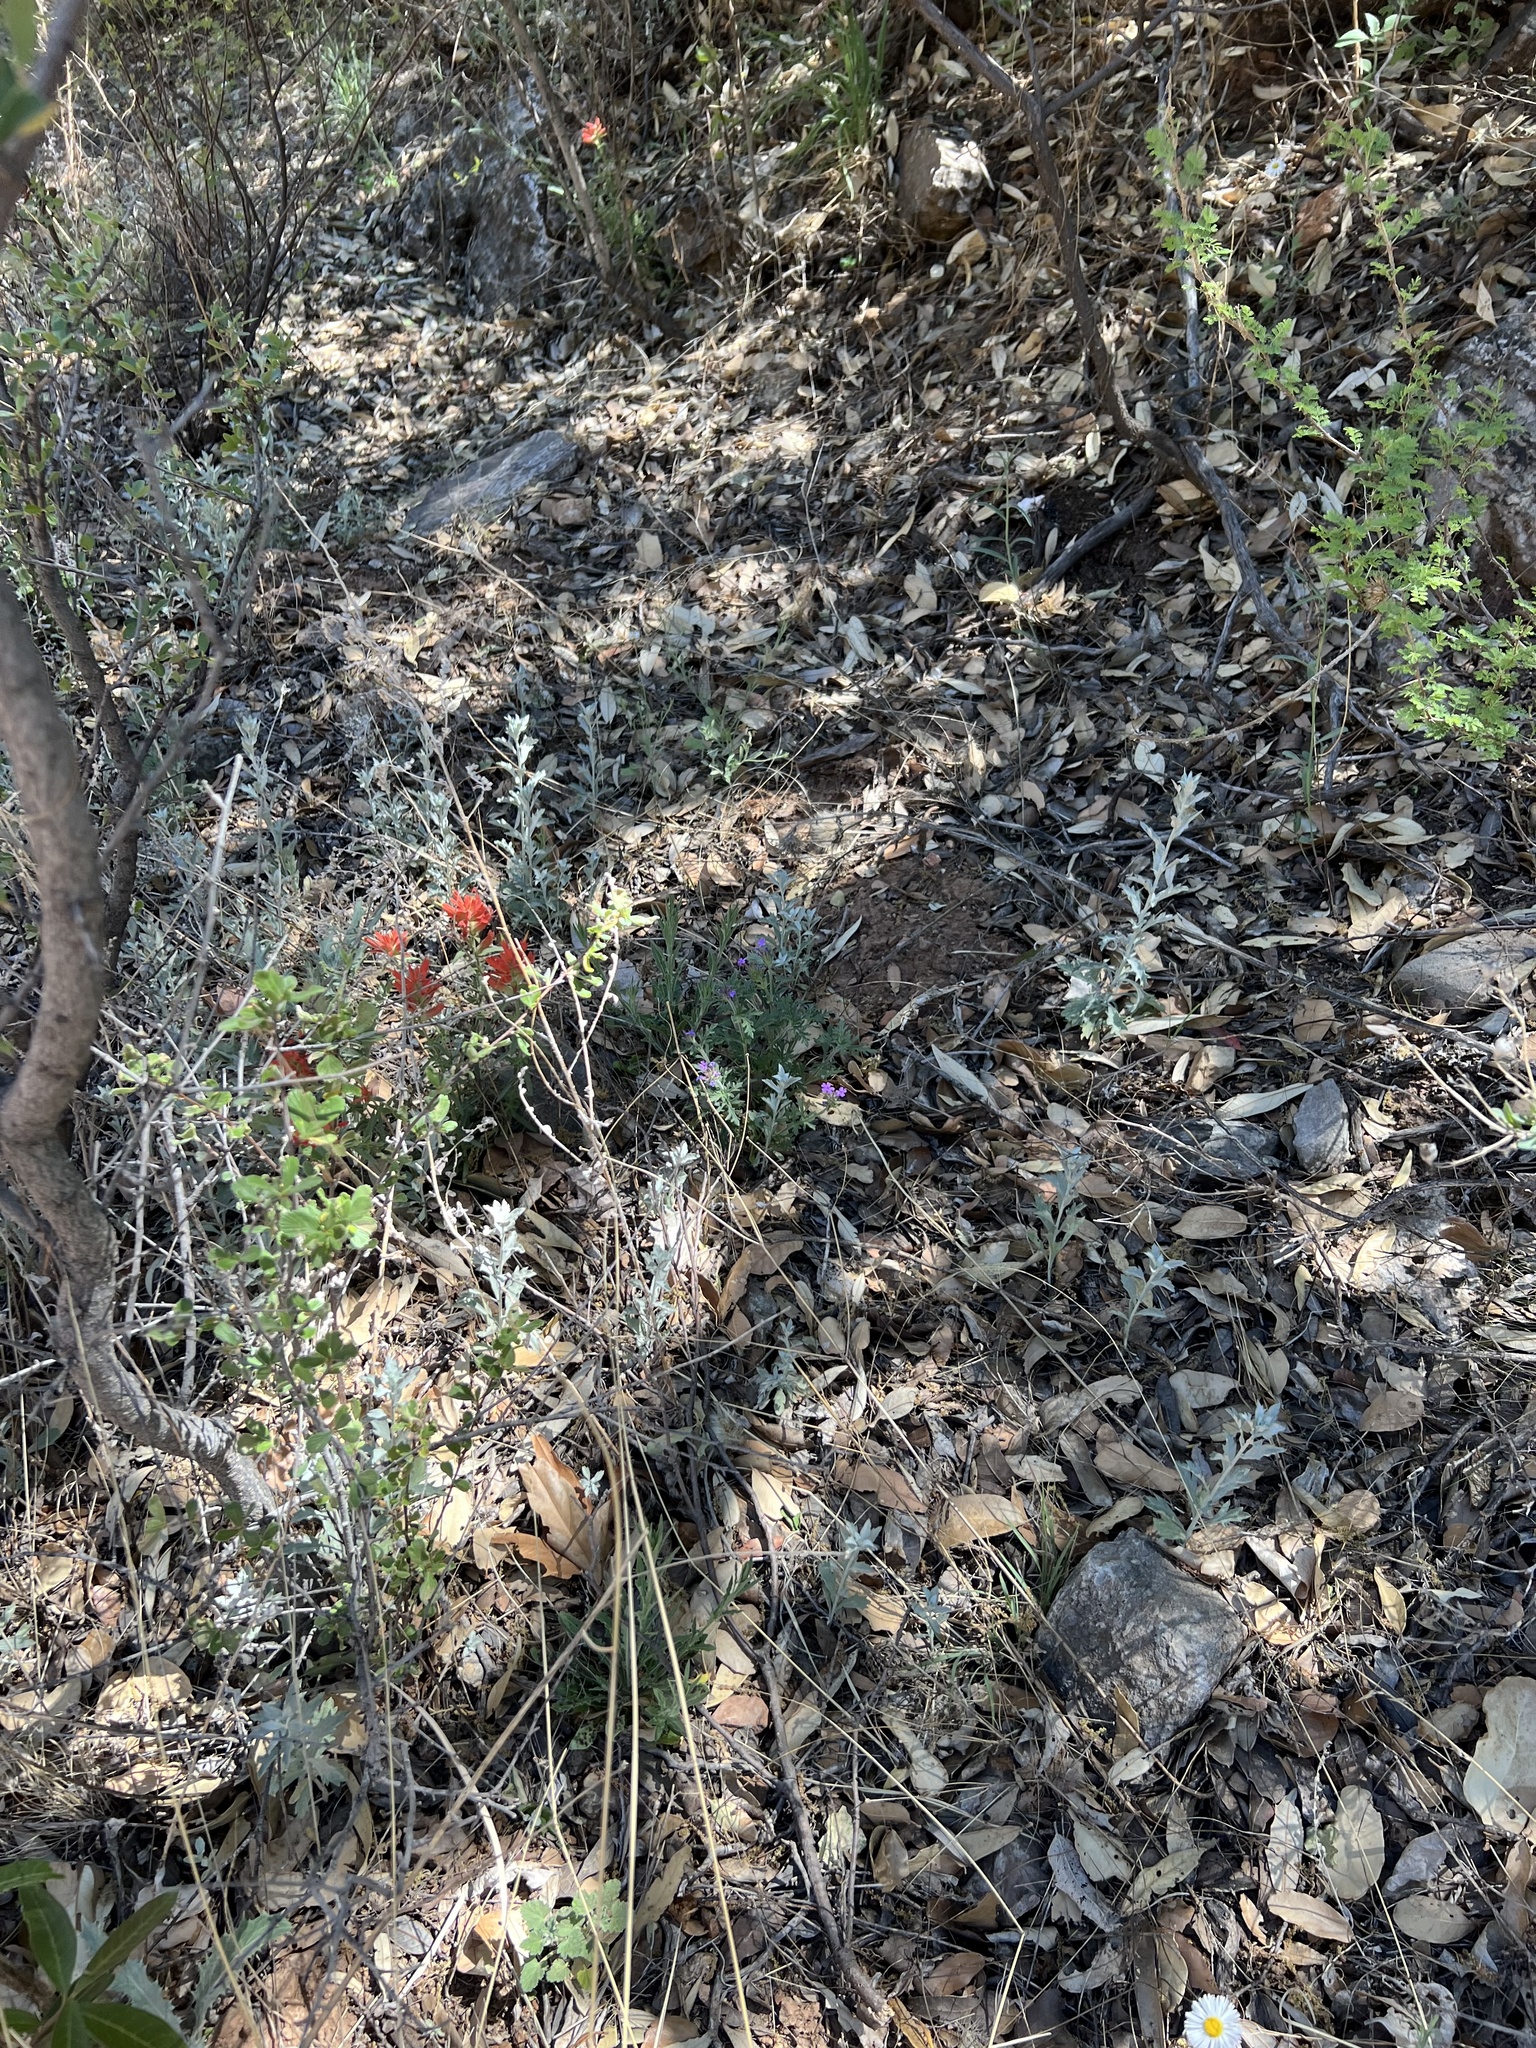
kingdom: Plantae
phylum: Tracheophyta
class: Magnoliopsida
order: Lamiales
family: Orobanchaceae
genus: Castilleja
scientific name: Castilleja tenuiflora
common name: Santa catalina indian paintbrush
